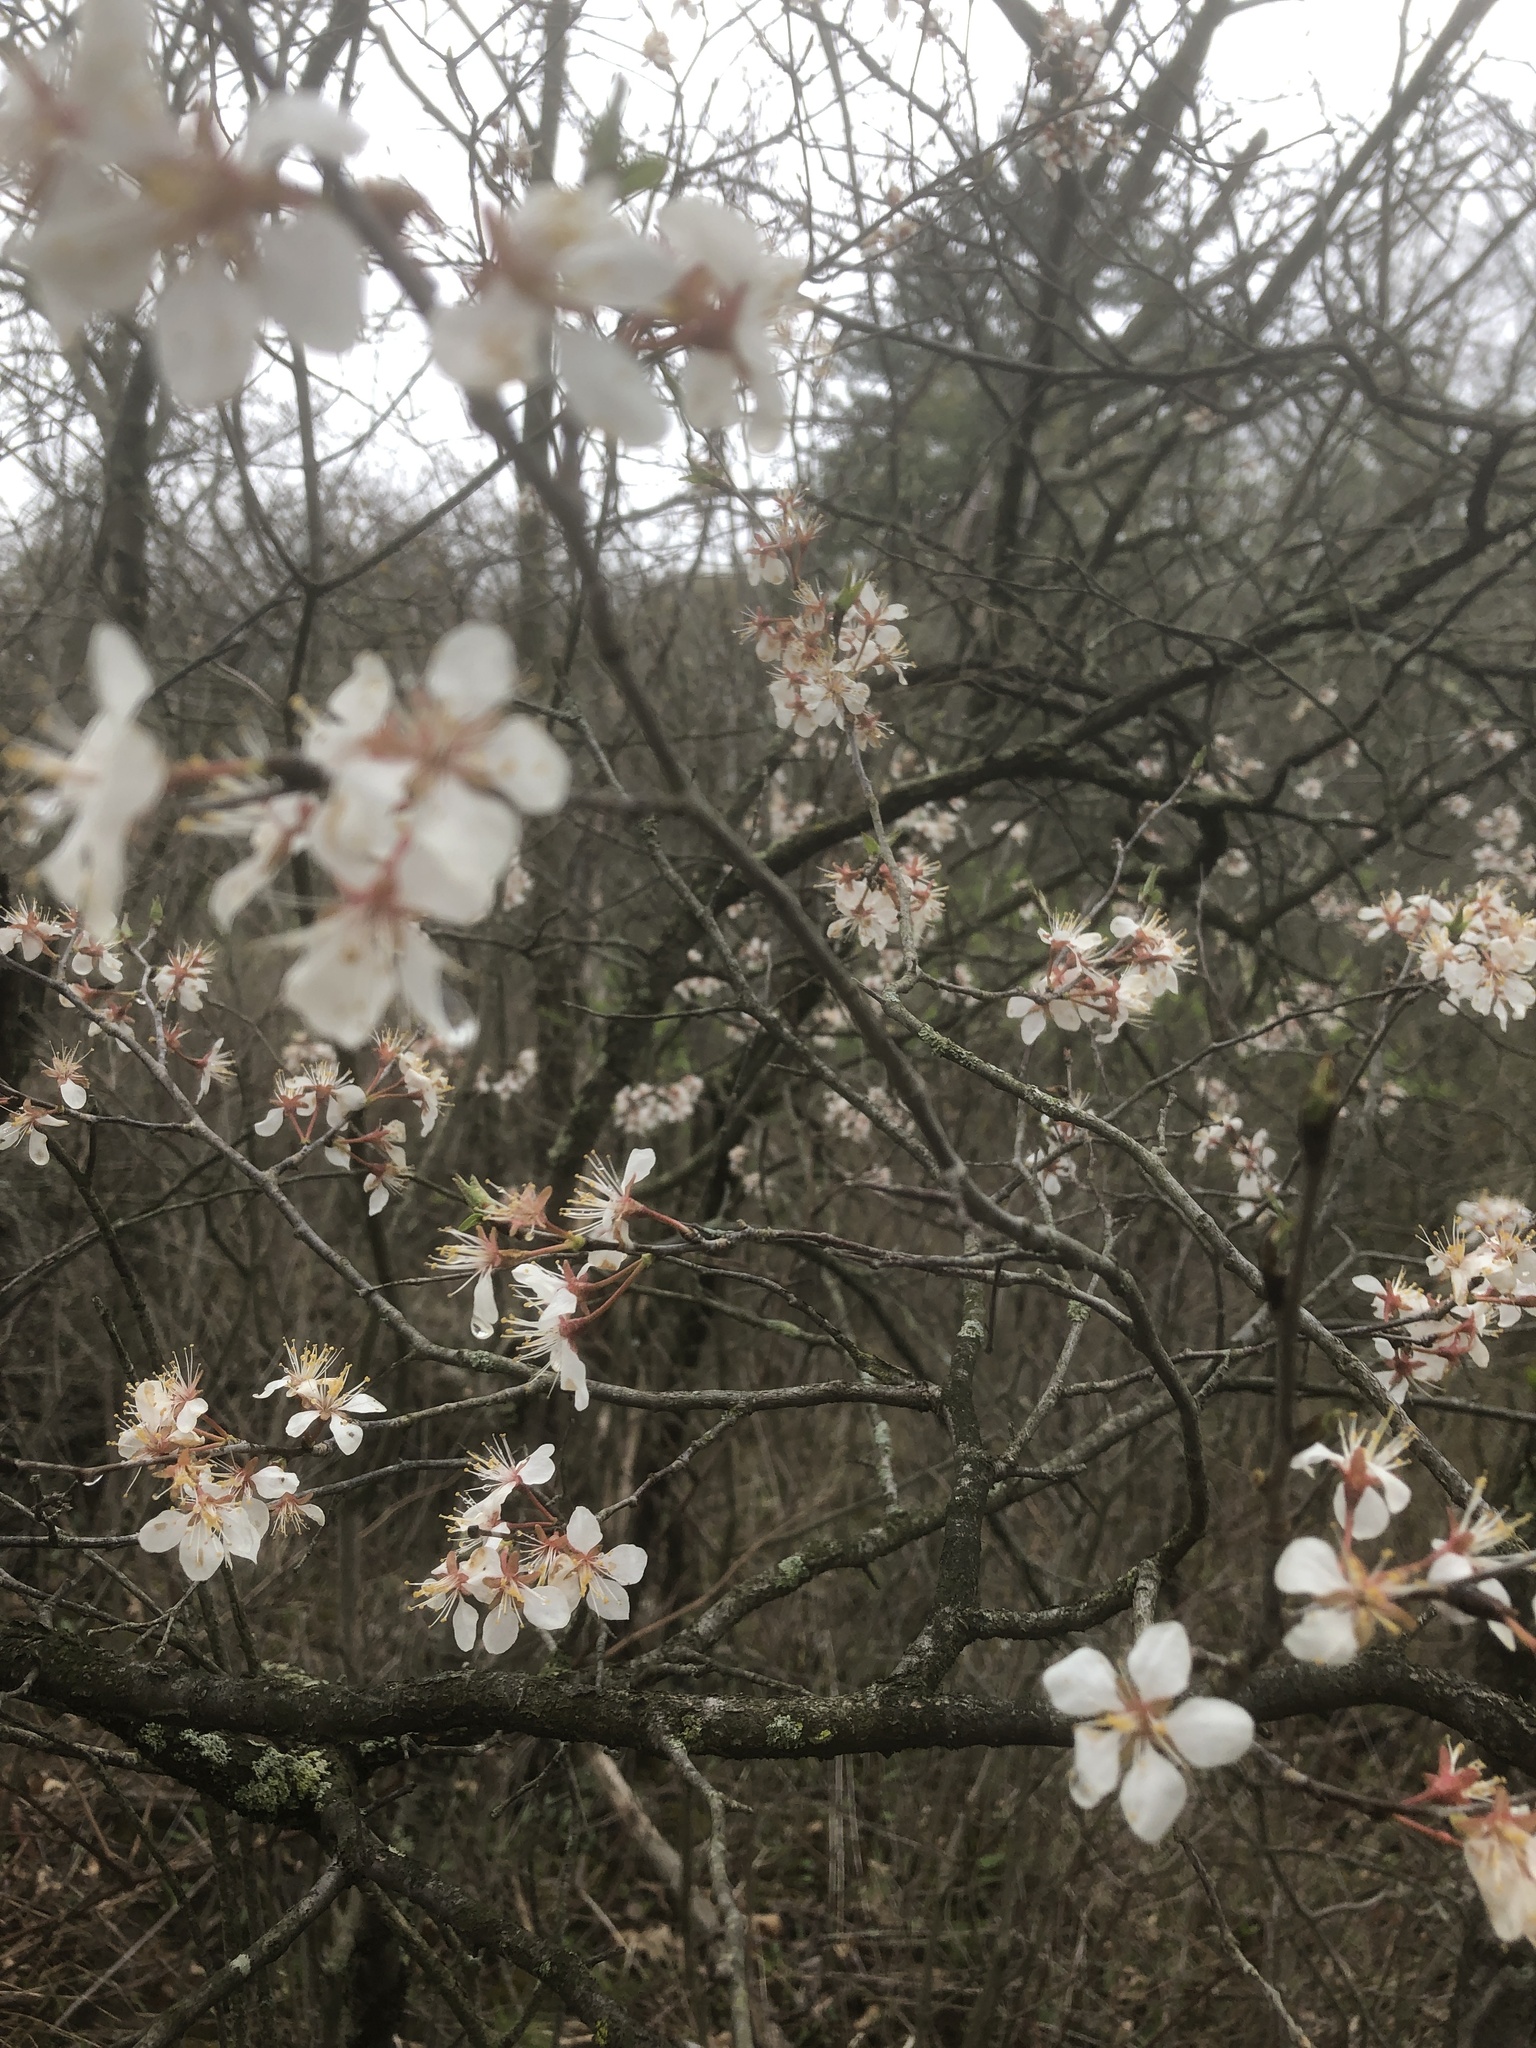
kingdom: Plantae
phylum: Tracheophyta
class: Magnoliopsida
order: Rosales
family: Rosaceae
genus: Prunus
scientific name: Prunus nigra
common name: Black plum
